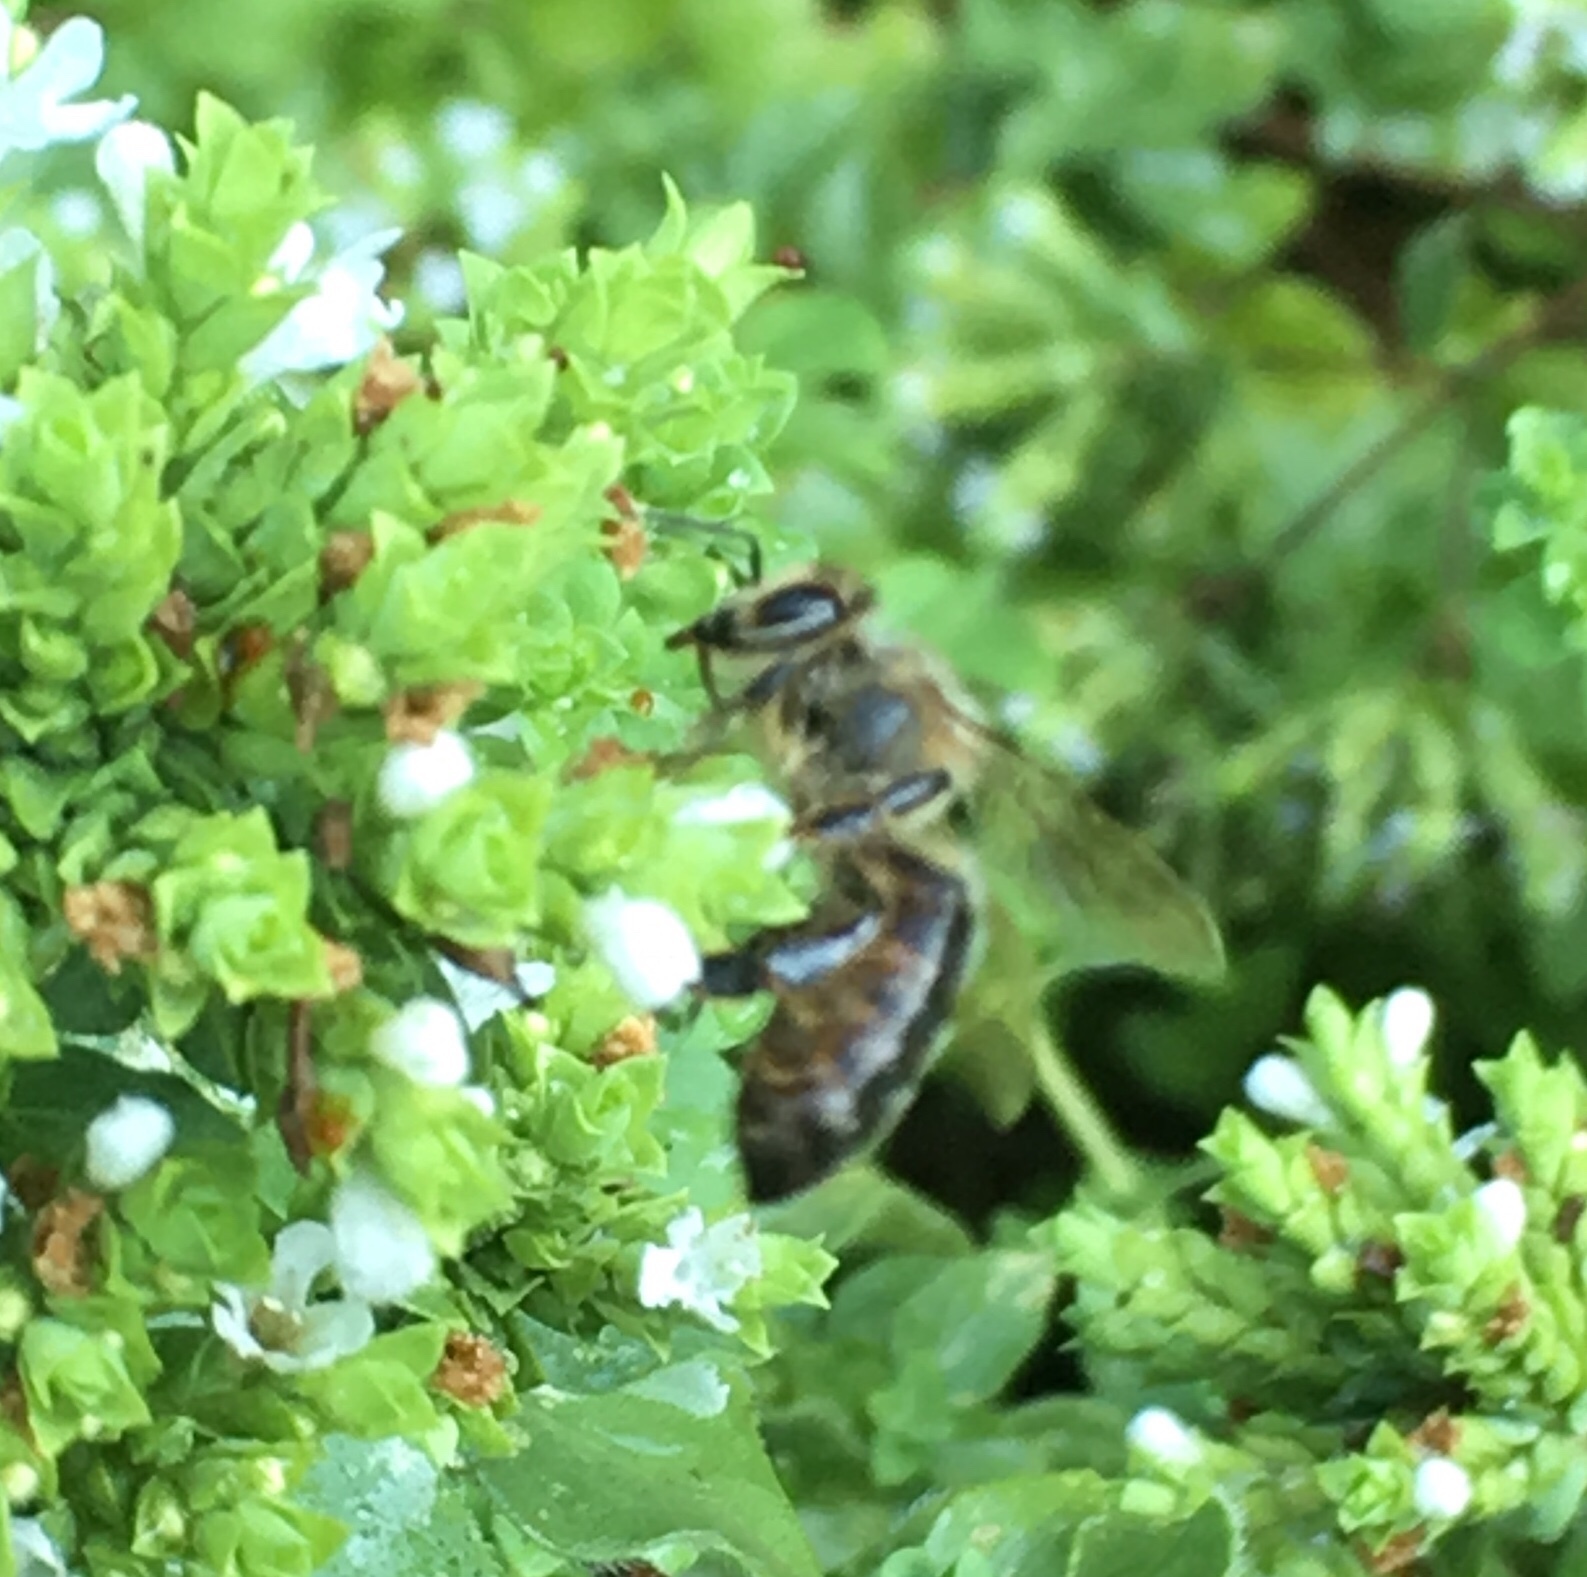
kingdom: Animalia
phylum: Arthropoda
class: Insecta
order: Hymenoptera
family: Apidae
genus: Apis
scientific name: Apis mellifera
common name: Honey bee
